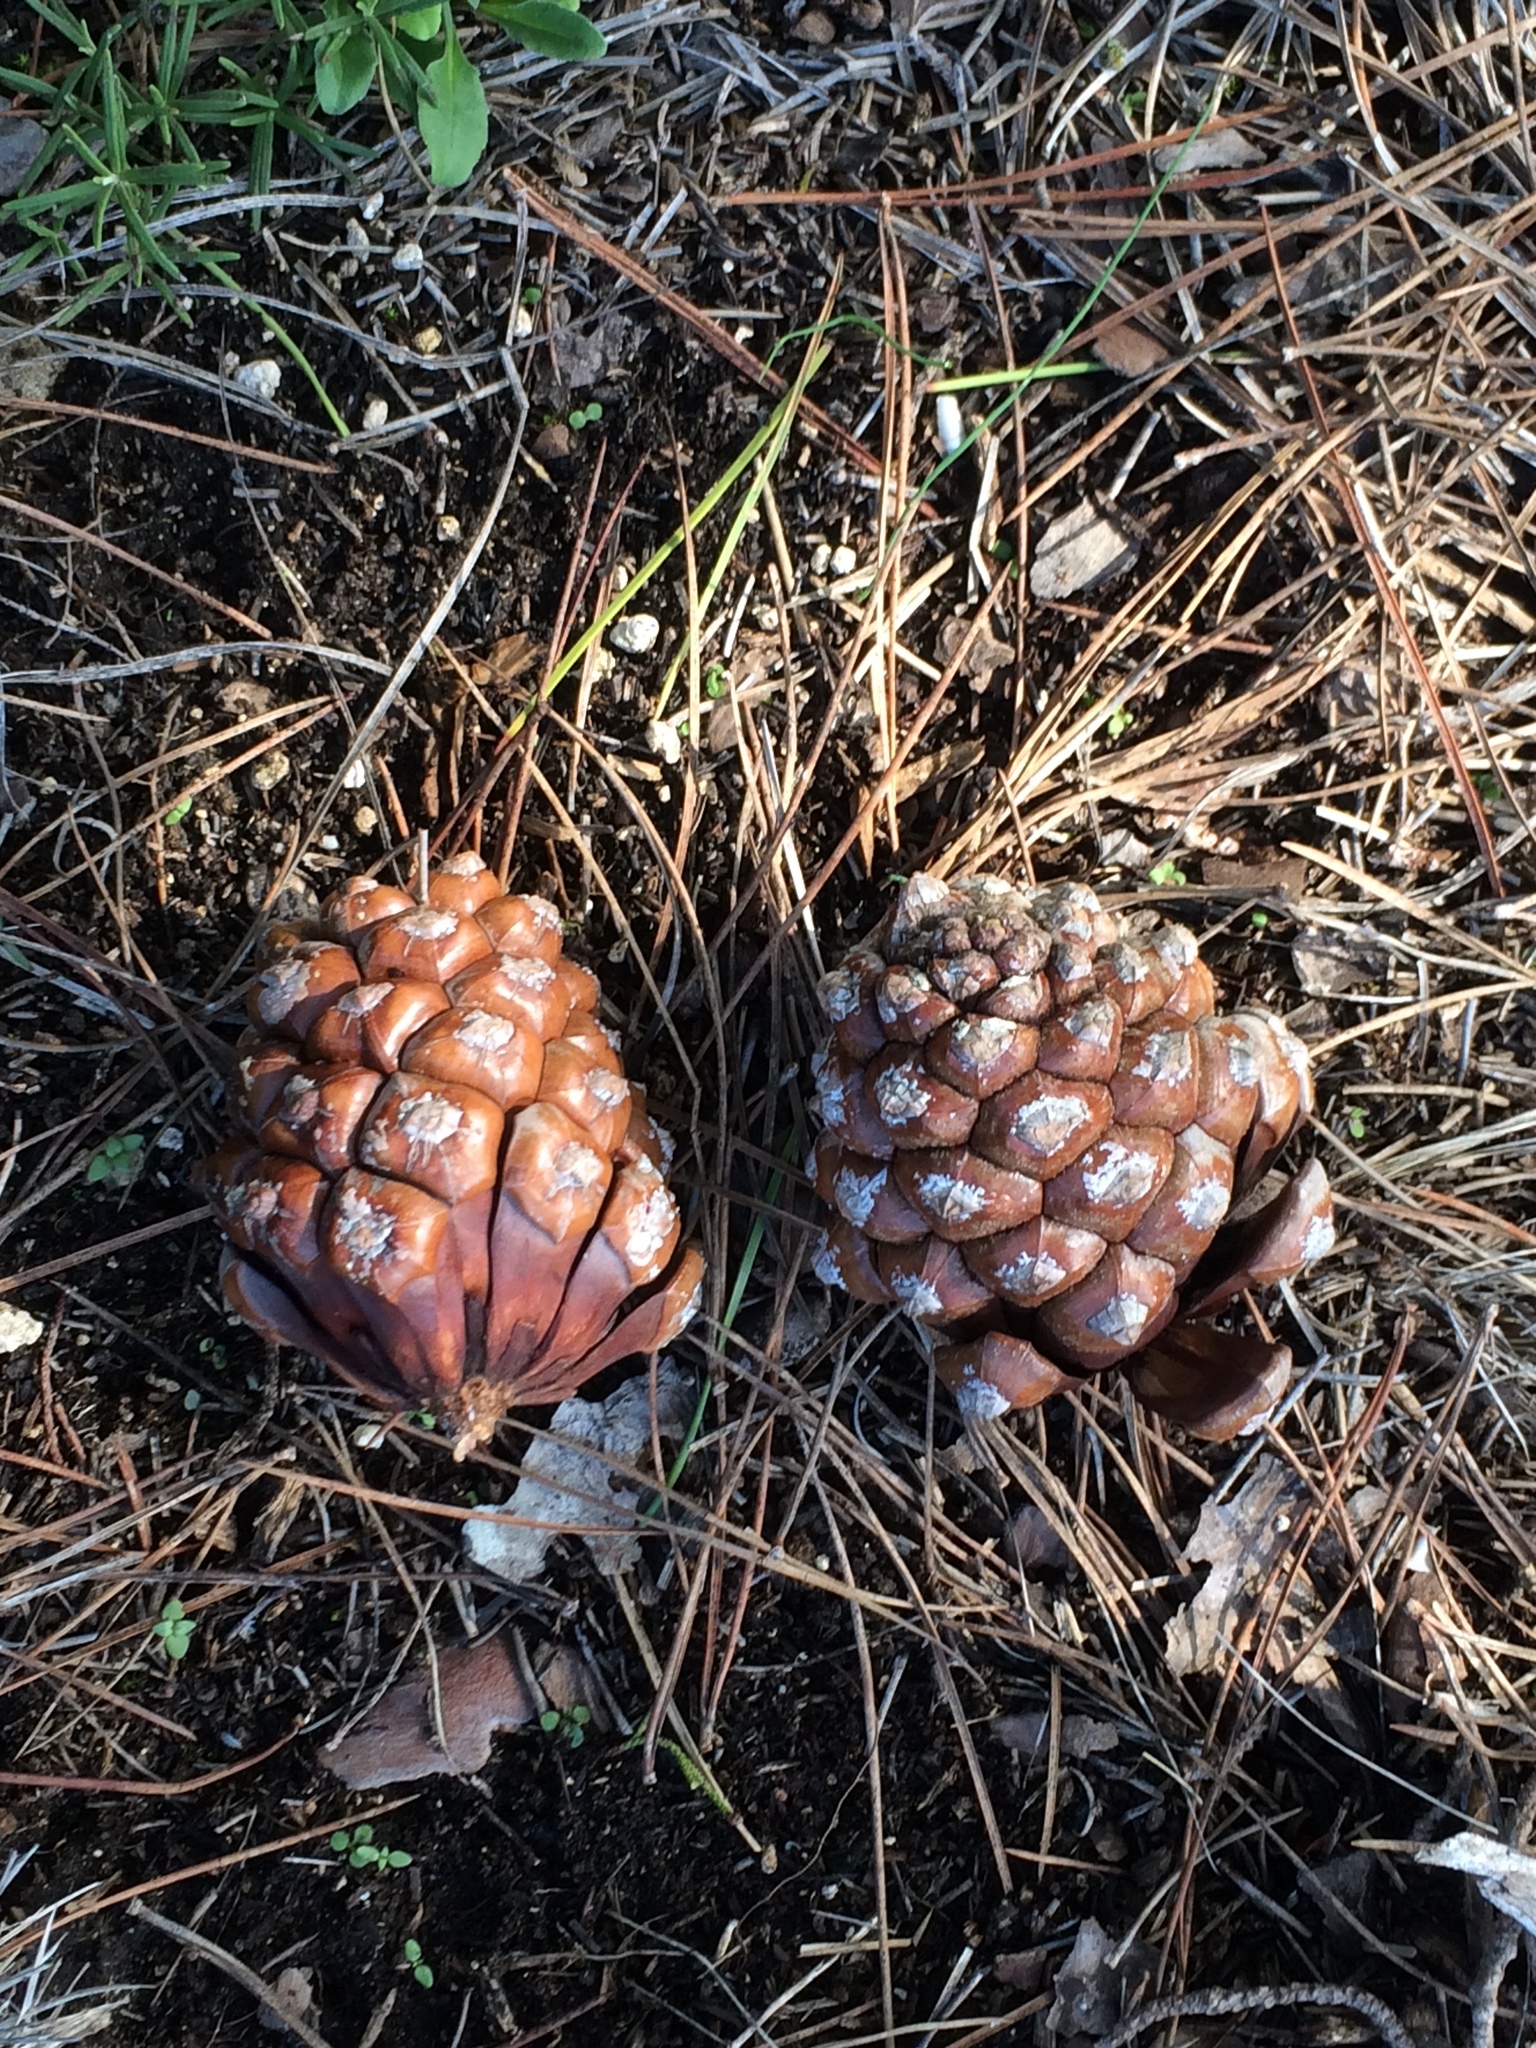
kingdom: Plantae
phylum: Tracheophyta
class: Pinopsida
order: Pinales
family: Pinaceae
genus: Pinus
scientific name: Pinus pinea
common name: Italian stone pine
